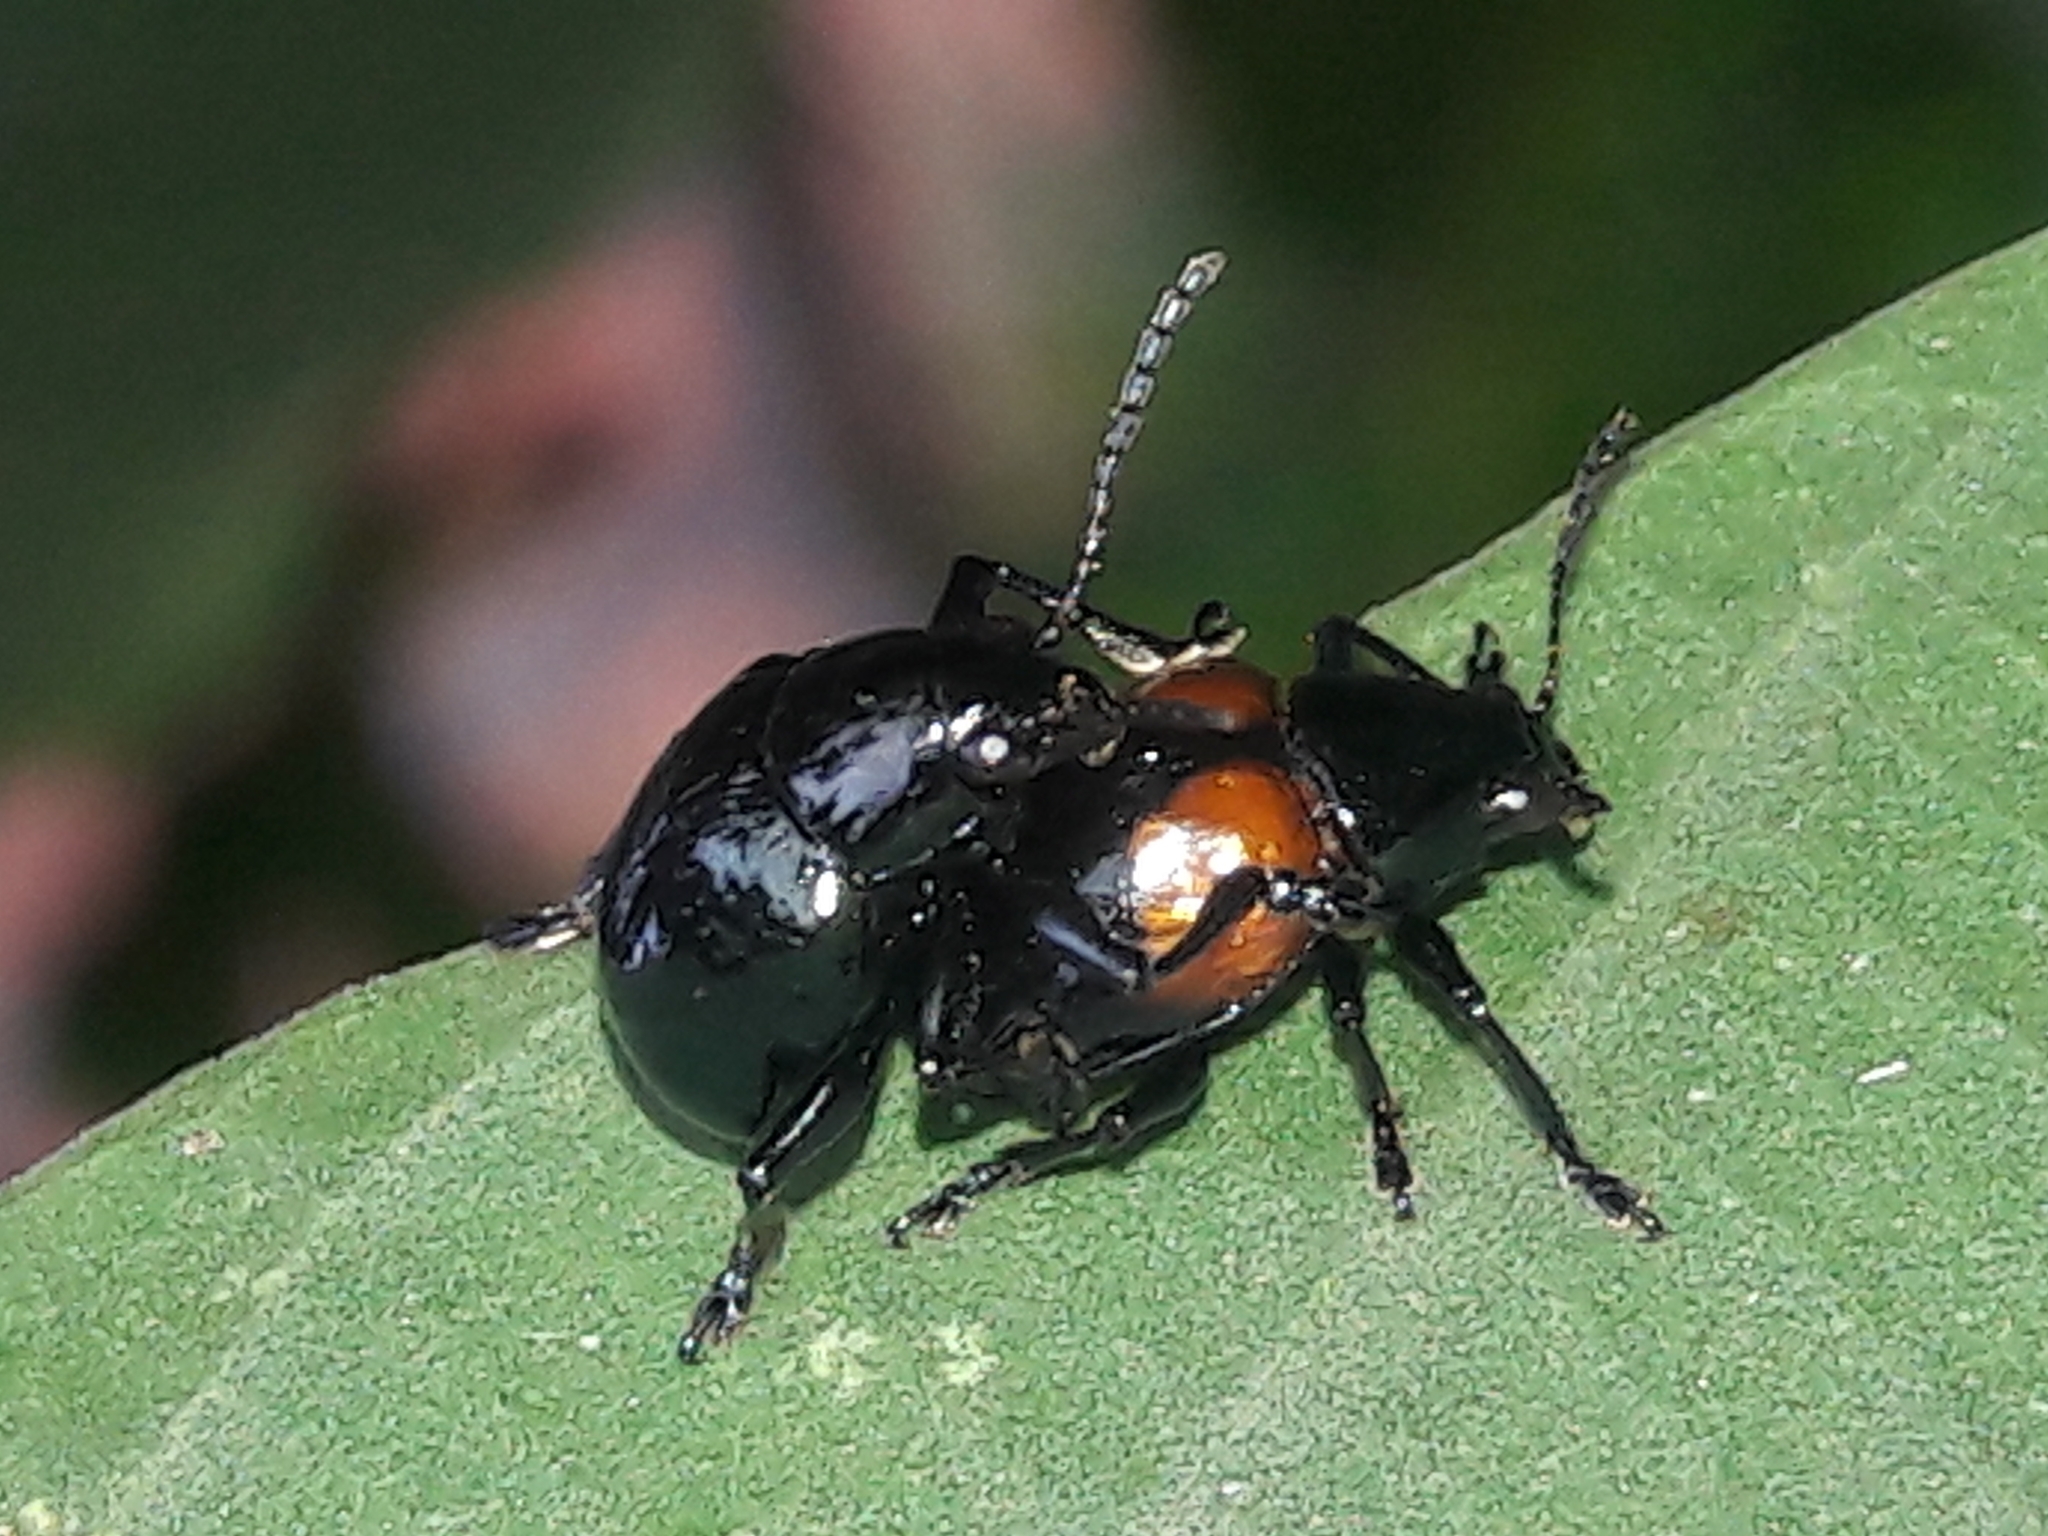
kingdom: Animalia
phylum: Arthropoda
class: Insecta
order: Coleoptera
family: Chrysomelidae
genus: Typophorus
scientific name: Typophorus nigritus
